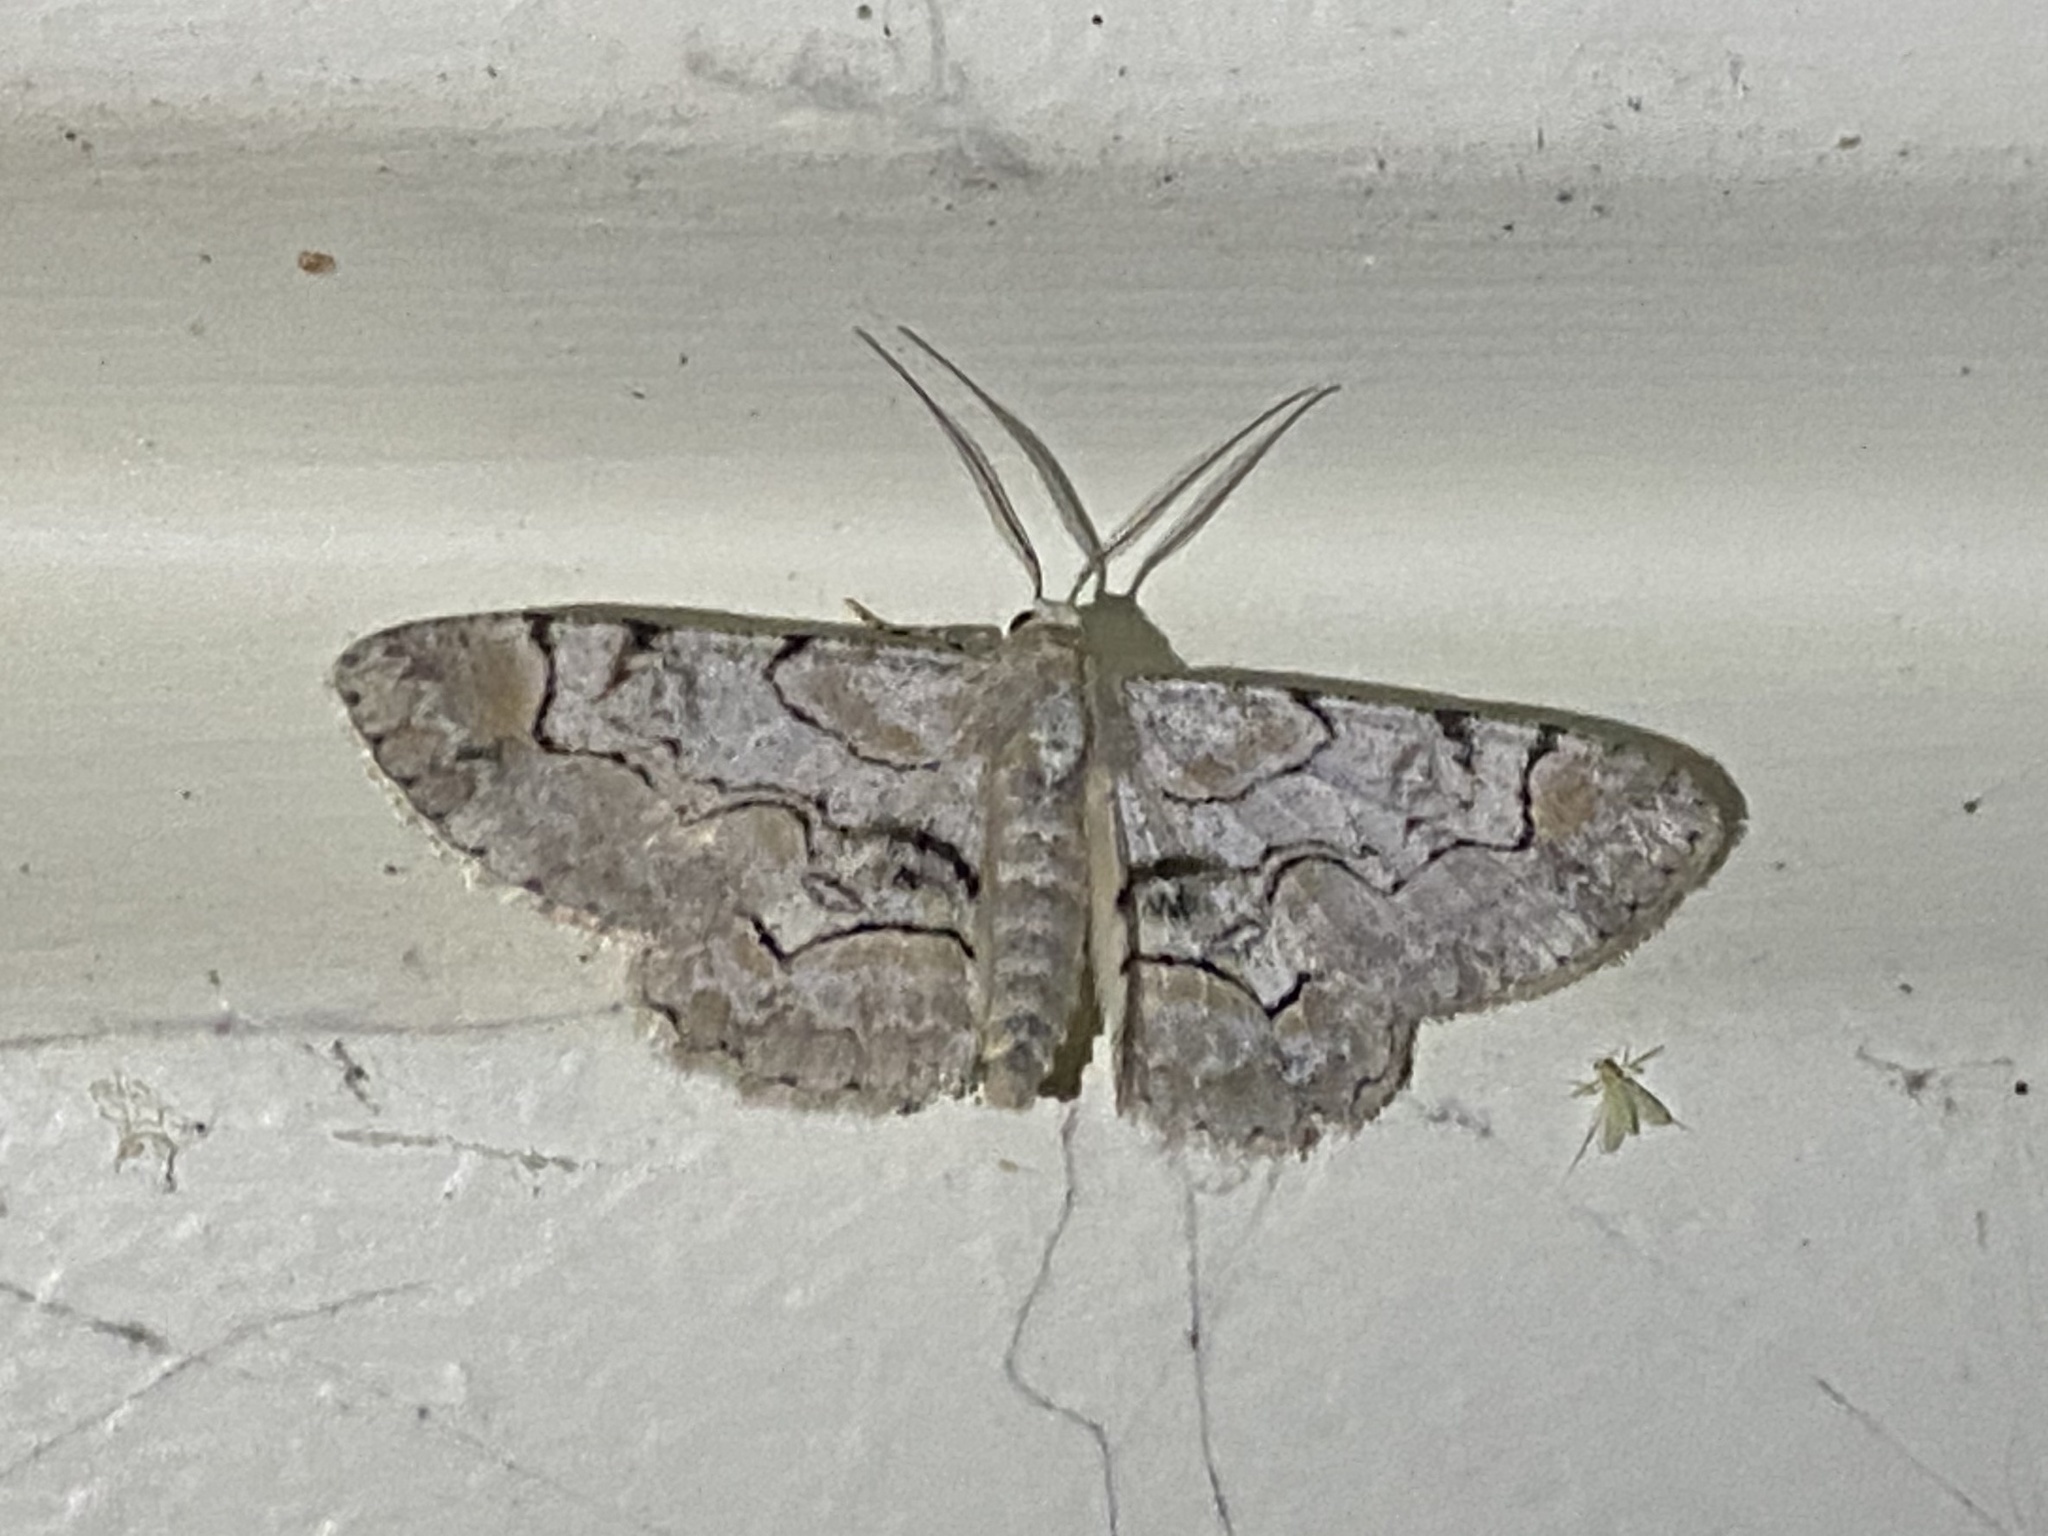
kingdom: Animalia
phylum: Arthropoda
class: Insecta
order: Lepidoptera
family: Geometridae
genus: Iridopsis
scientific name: Iridopsis larvaria
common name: Bent-line gray
